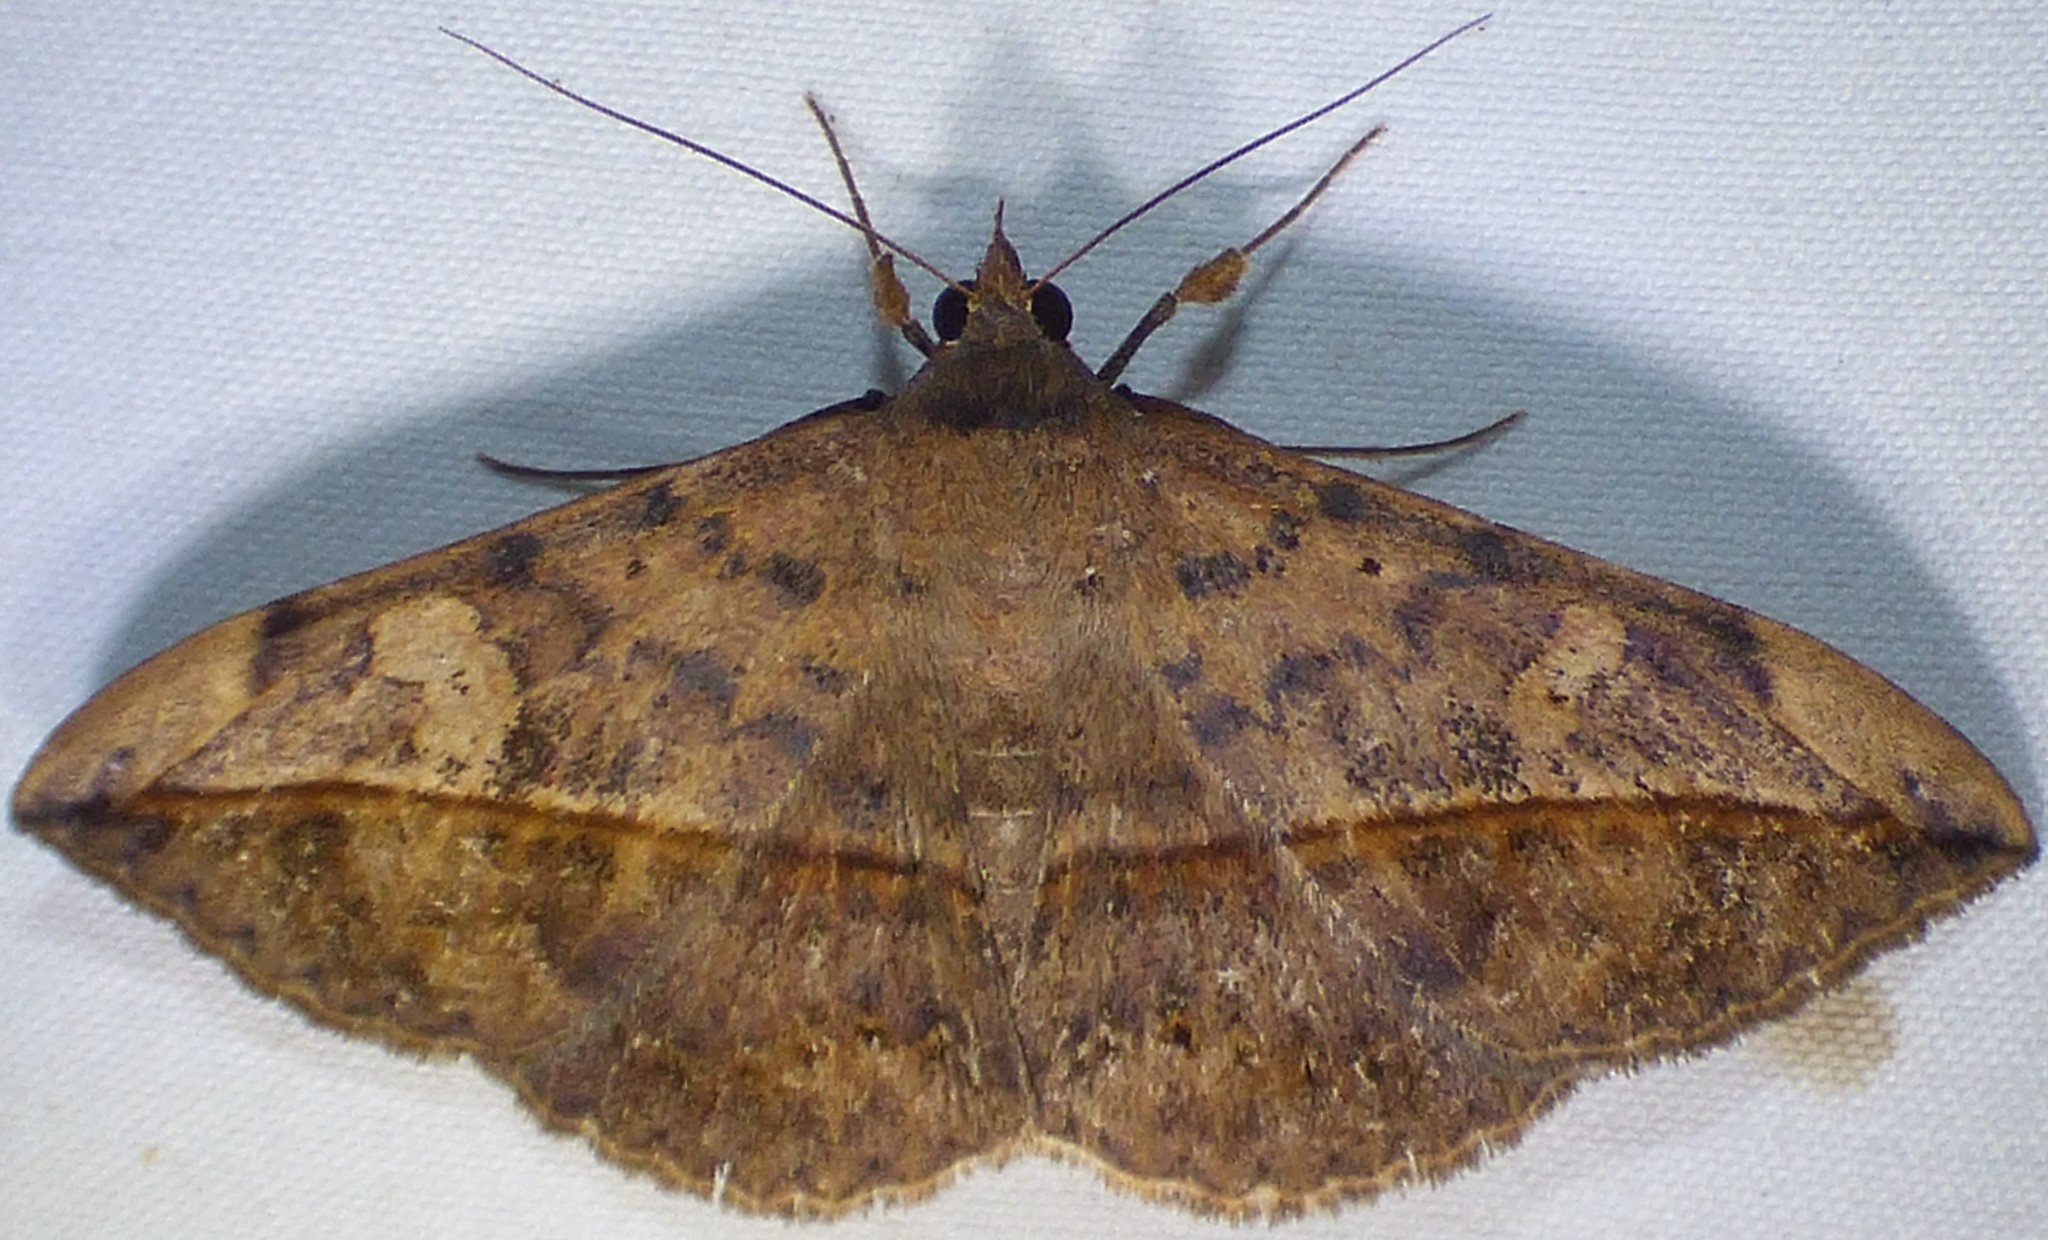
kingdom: Animalia
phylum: Arthropoda
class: Insecta
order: Lepidoptera
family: Erebidae
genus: Anticarsia
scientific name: Anticarsia gemmatalis
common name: Cutworm moth
